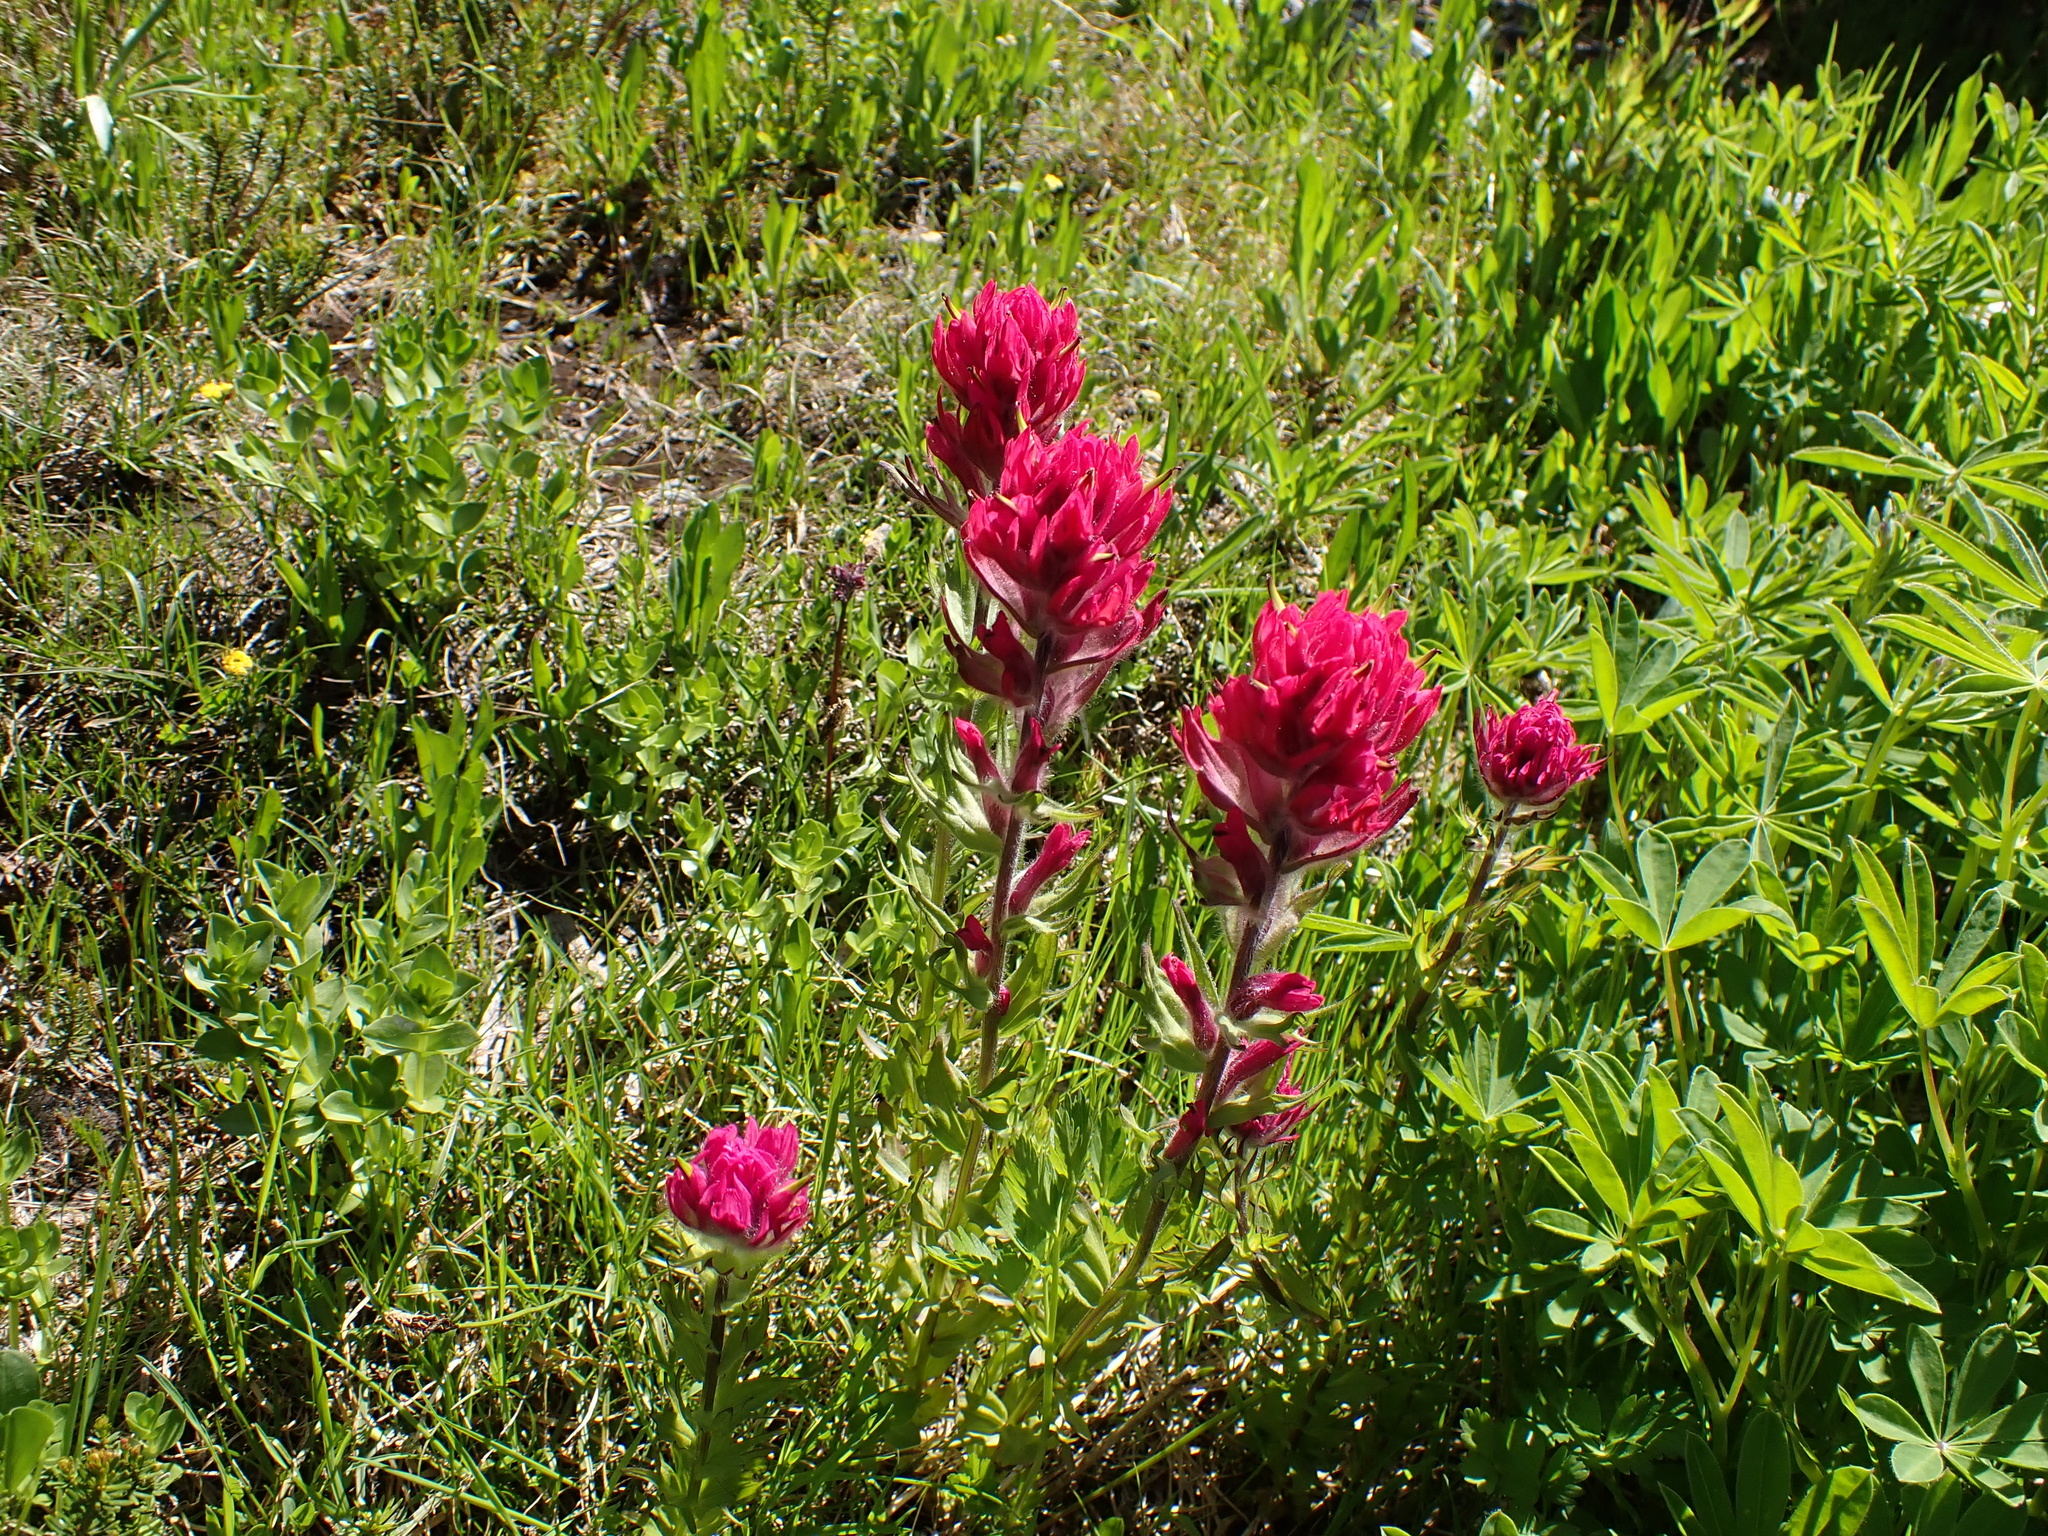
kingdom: Plantae
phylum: Tracheophyta
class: Magnoliopsida
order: Lamiales
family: Orobanchaceae
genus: Castilleja
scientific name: Castilleja parviflora
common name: Mountain paintbrush
